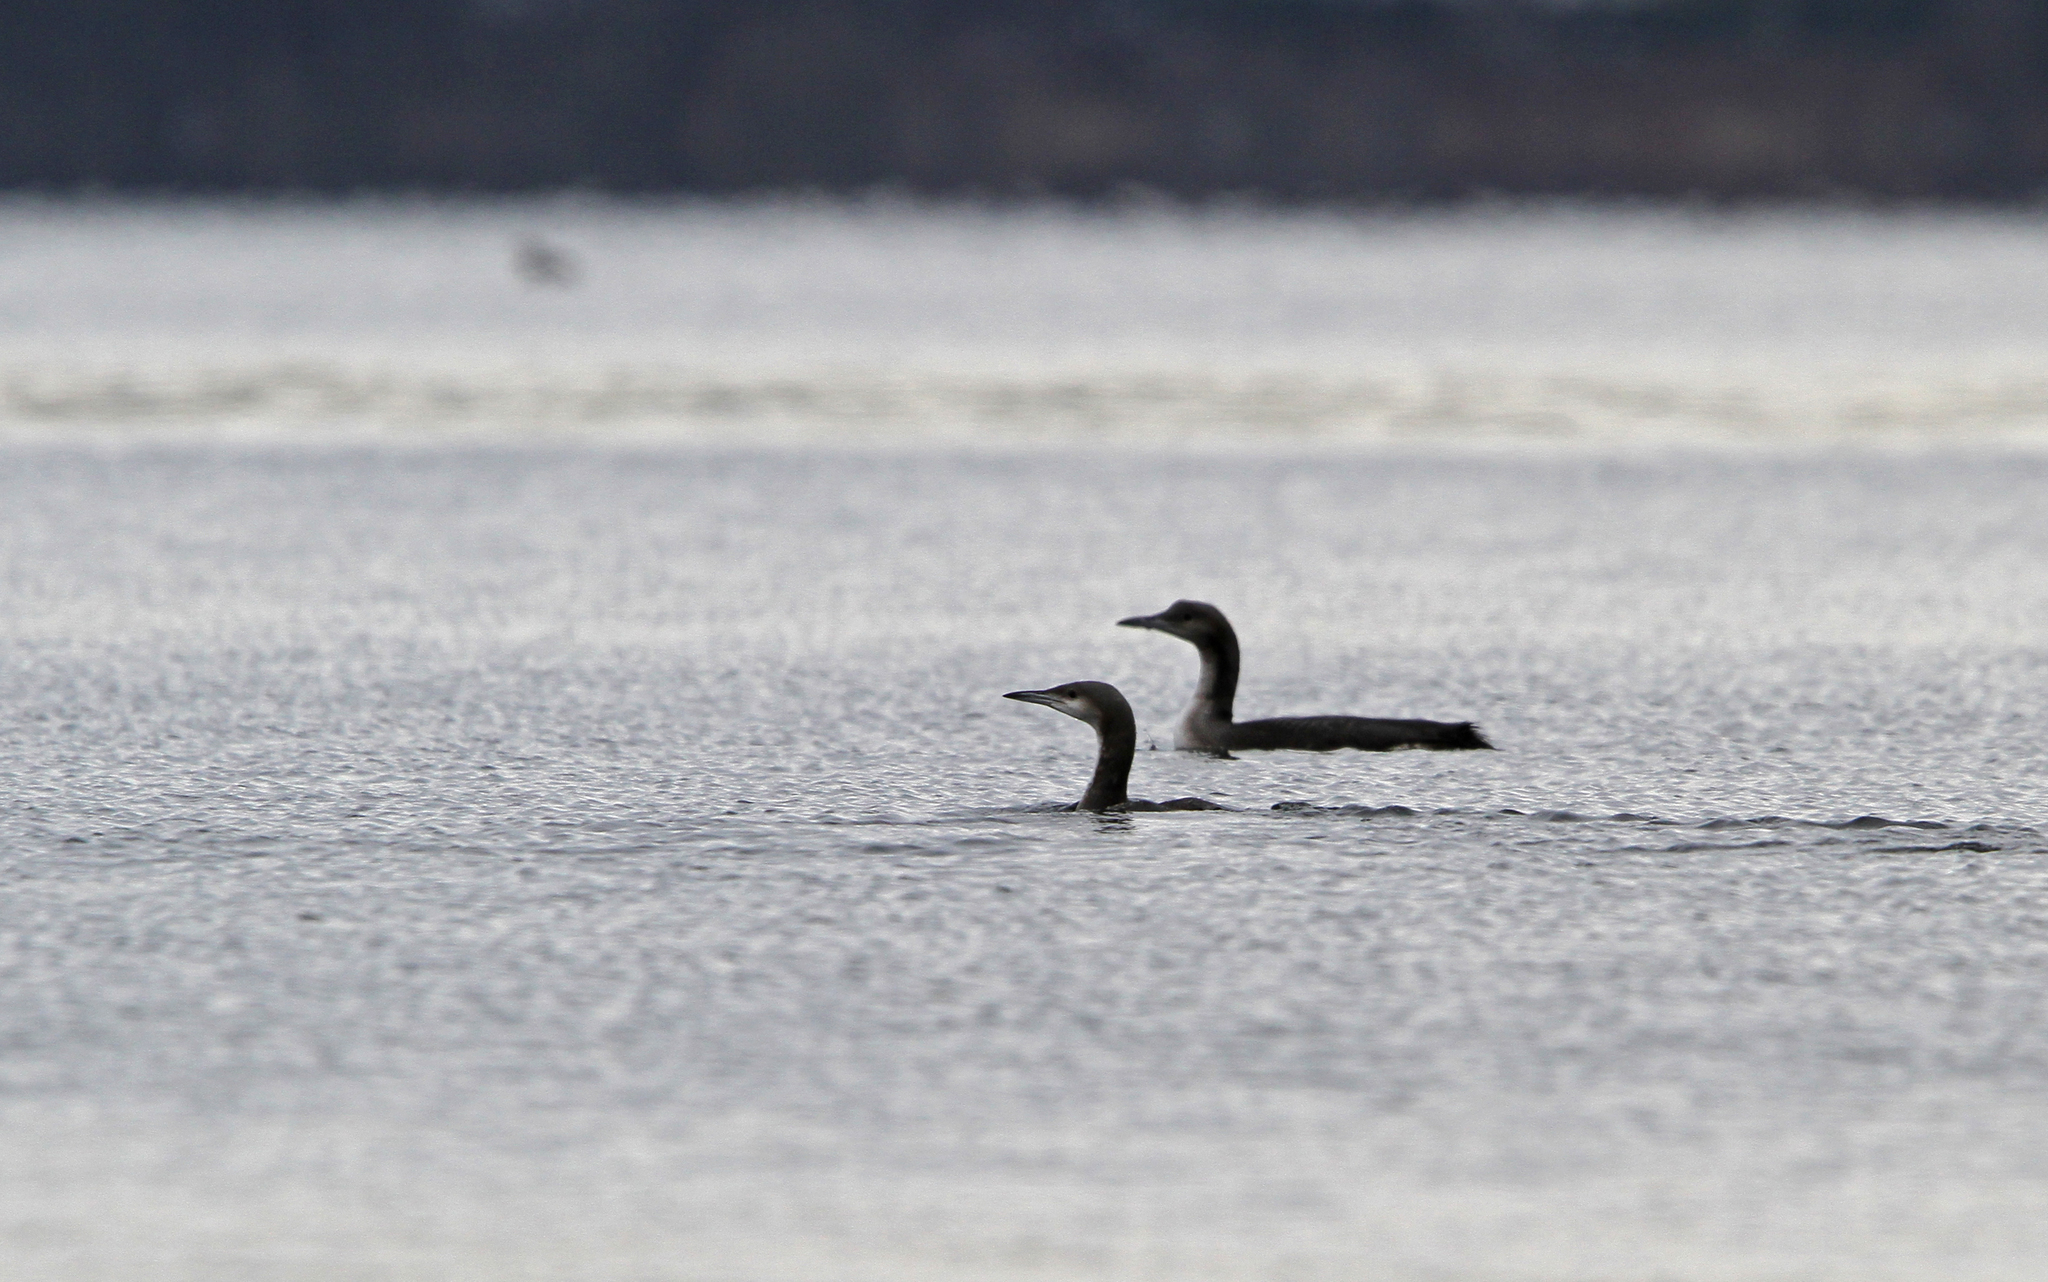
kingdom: Animalia
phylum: Chordata
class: Aves
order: Gaviiformes
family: Gaviidae
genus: Gavia
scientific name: Gavia arctica
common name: Black-throated loon
